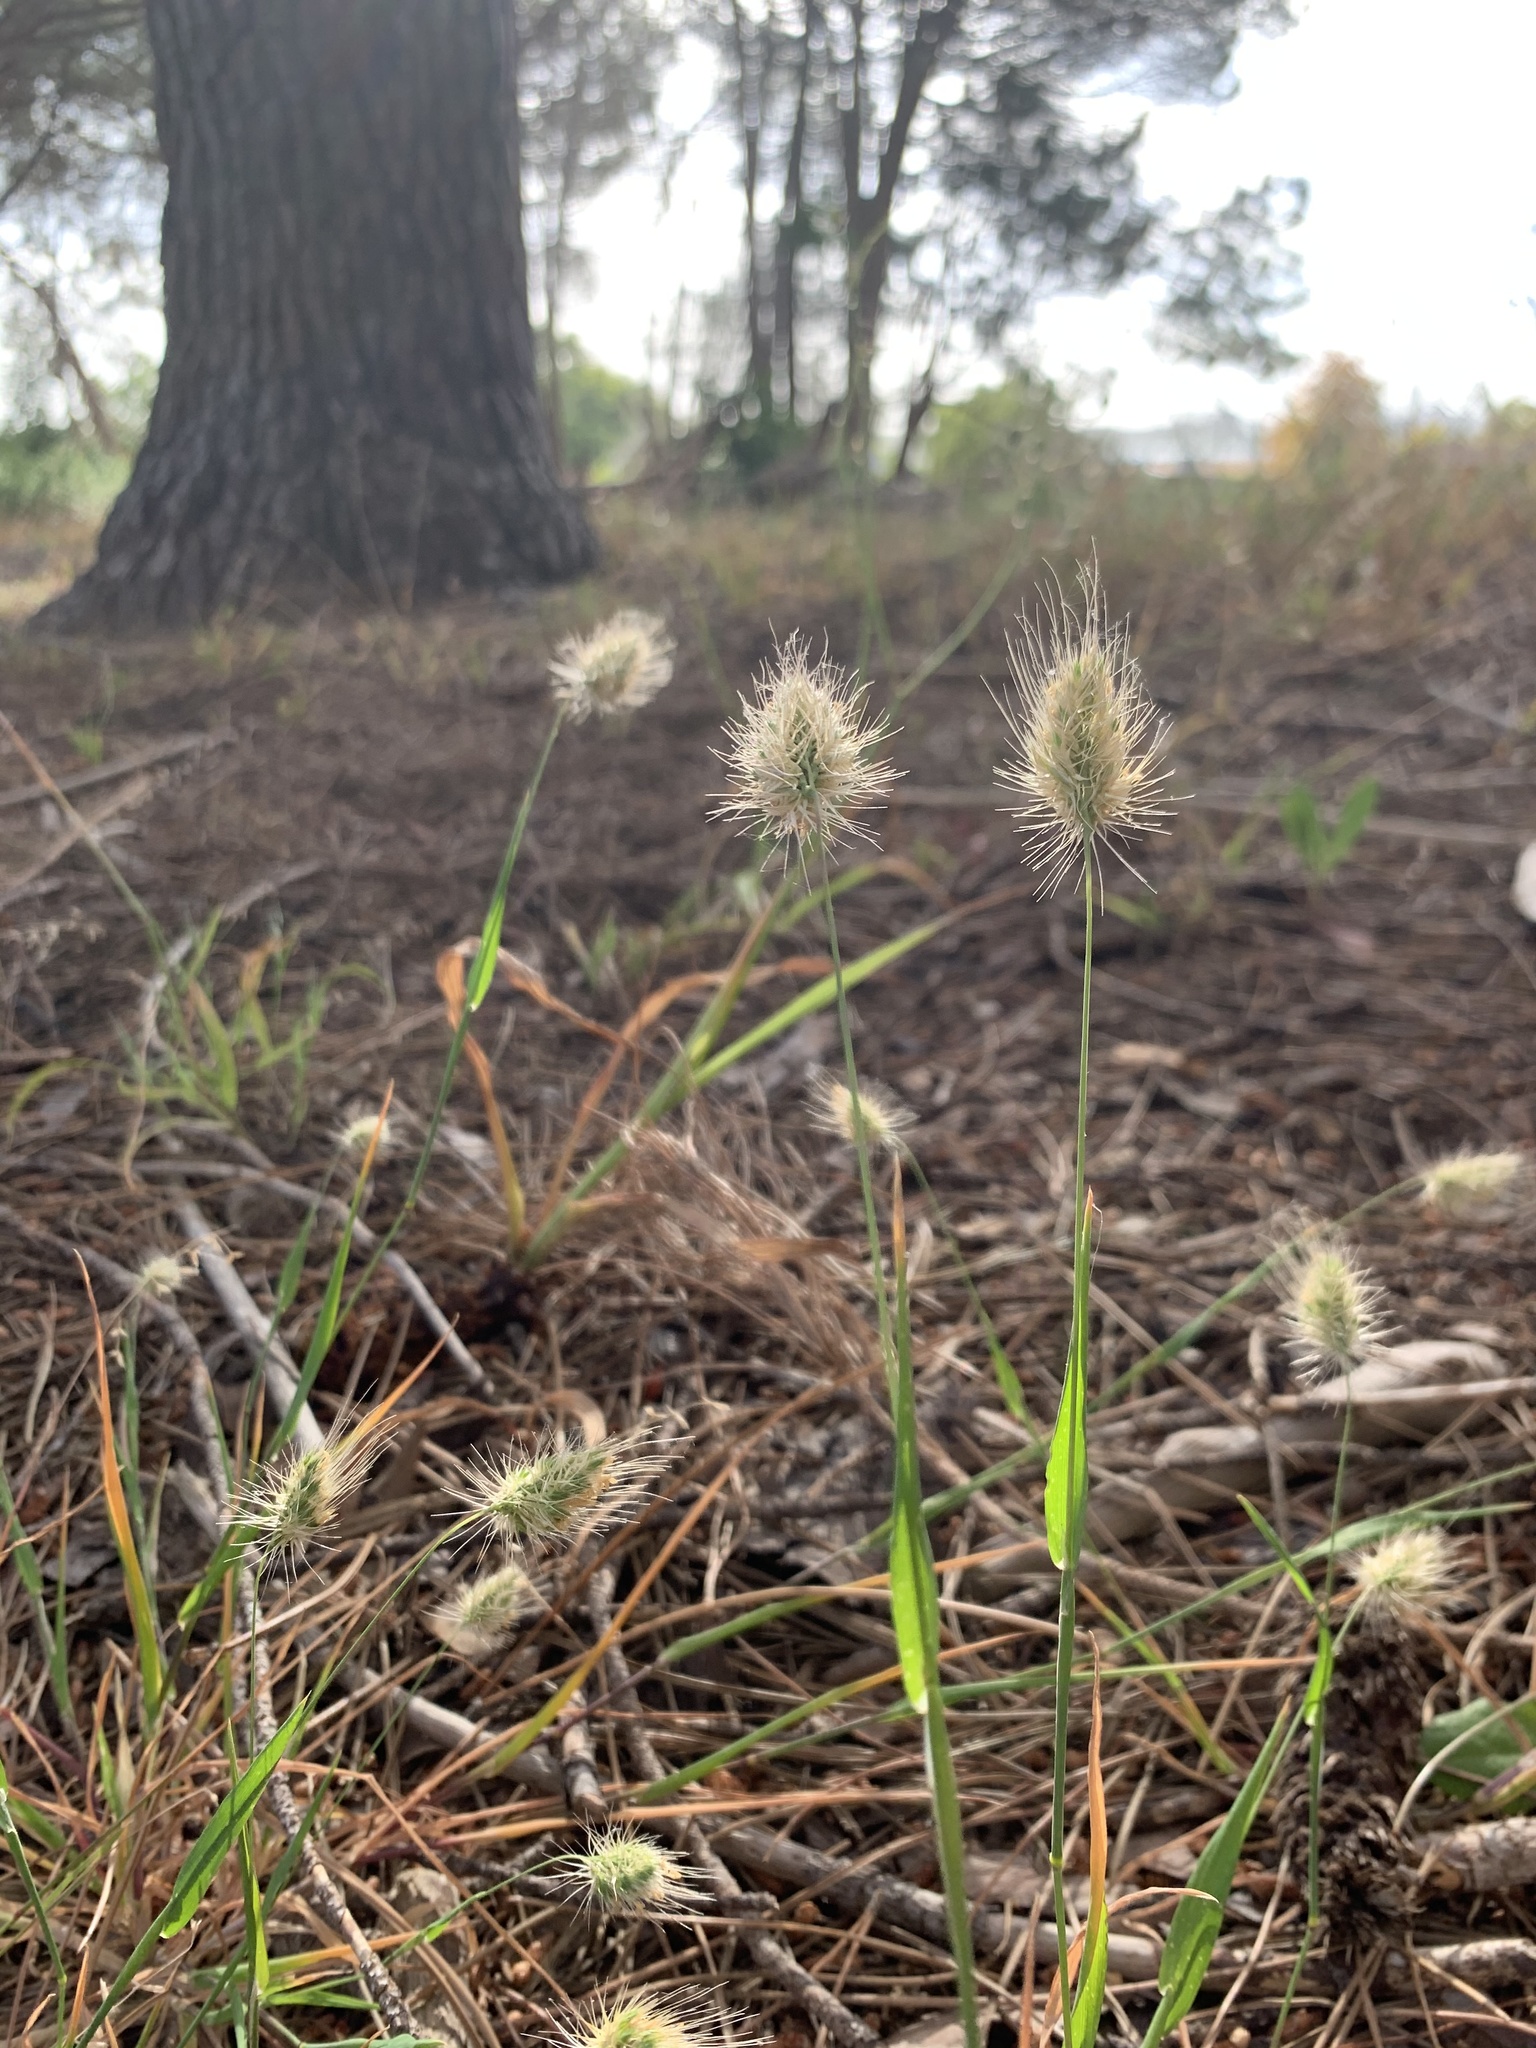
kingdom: Plantae
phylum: Tracheophyta
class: Liliopsida
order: Poales
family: Poaceae
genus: Cynosurus
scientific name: Cynosurus echinatus
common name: Rough dog's-tail
